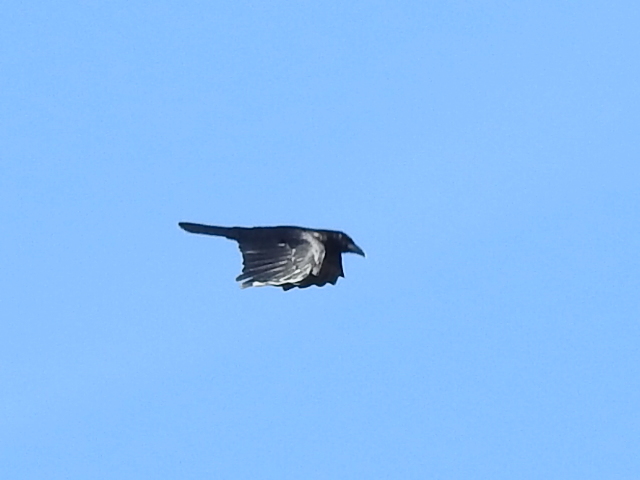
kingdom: Animalia
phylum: Chordata
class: Aves
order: Passeriformes
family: Corvidae
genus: Corvus
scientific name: Corvus brachyrhynchos
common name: American crow
